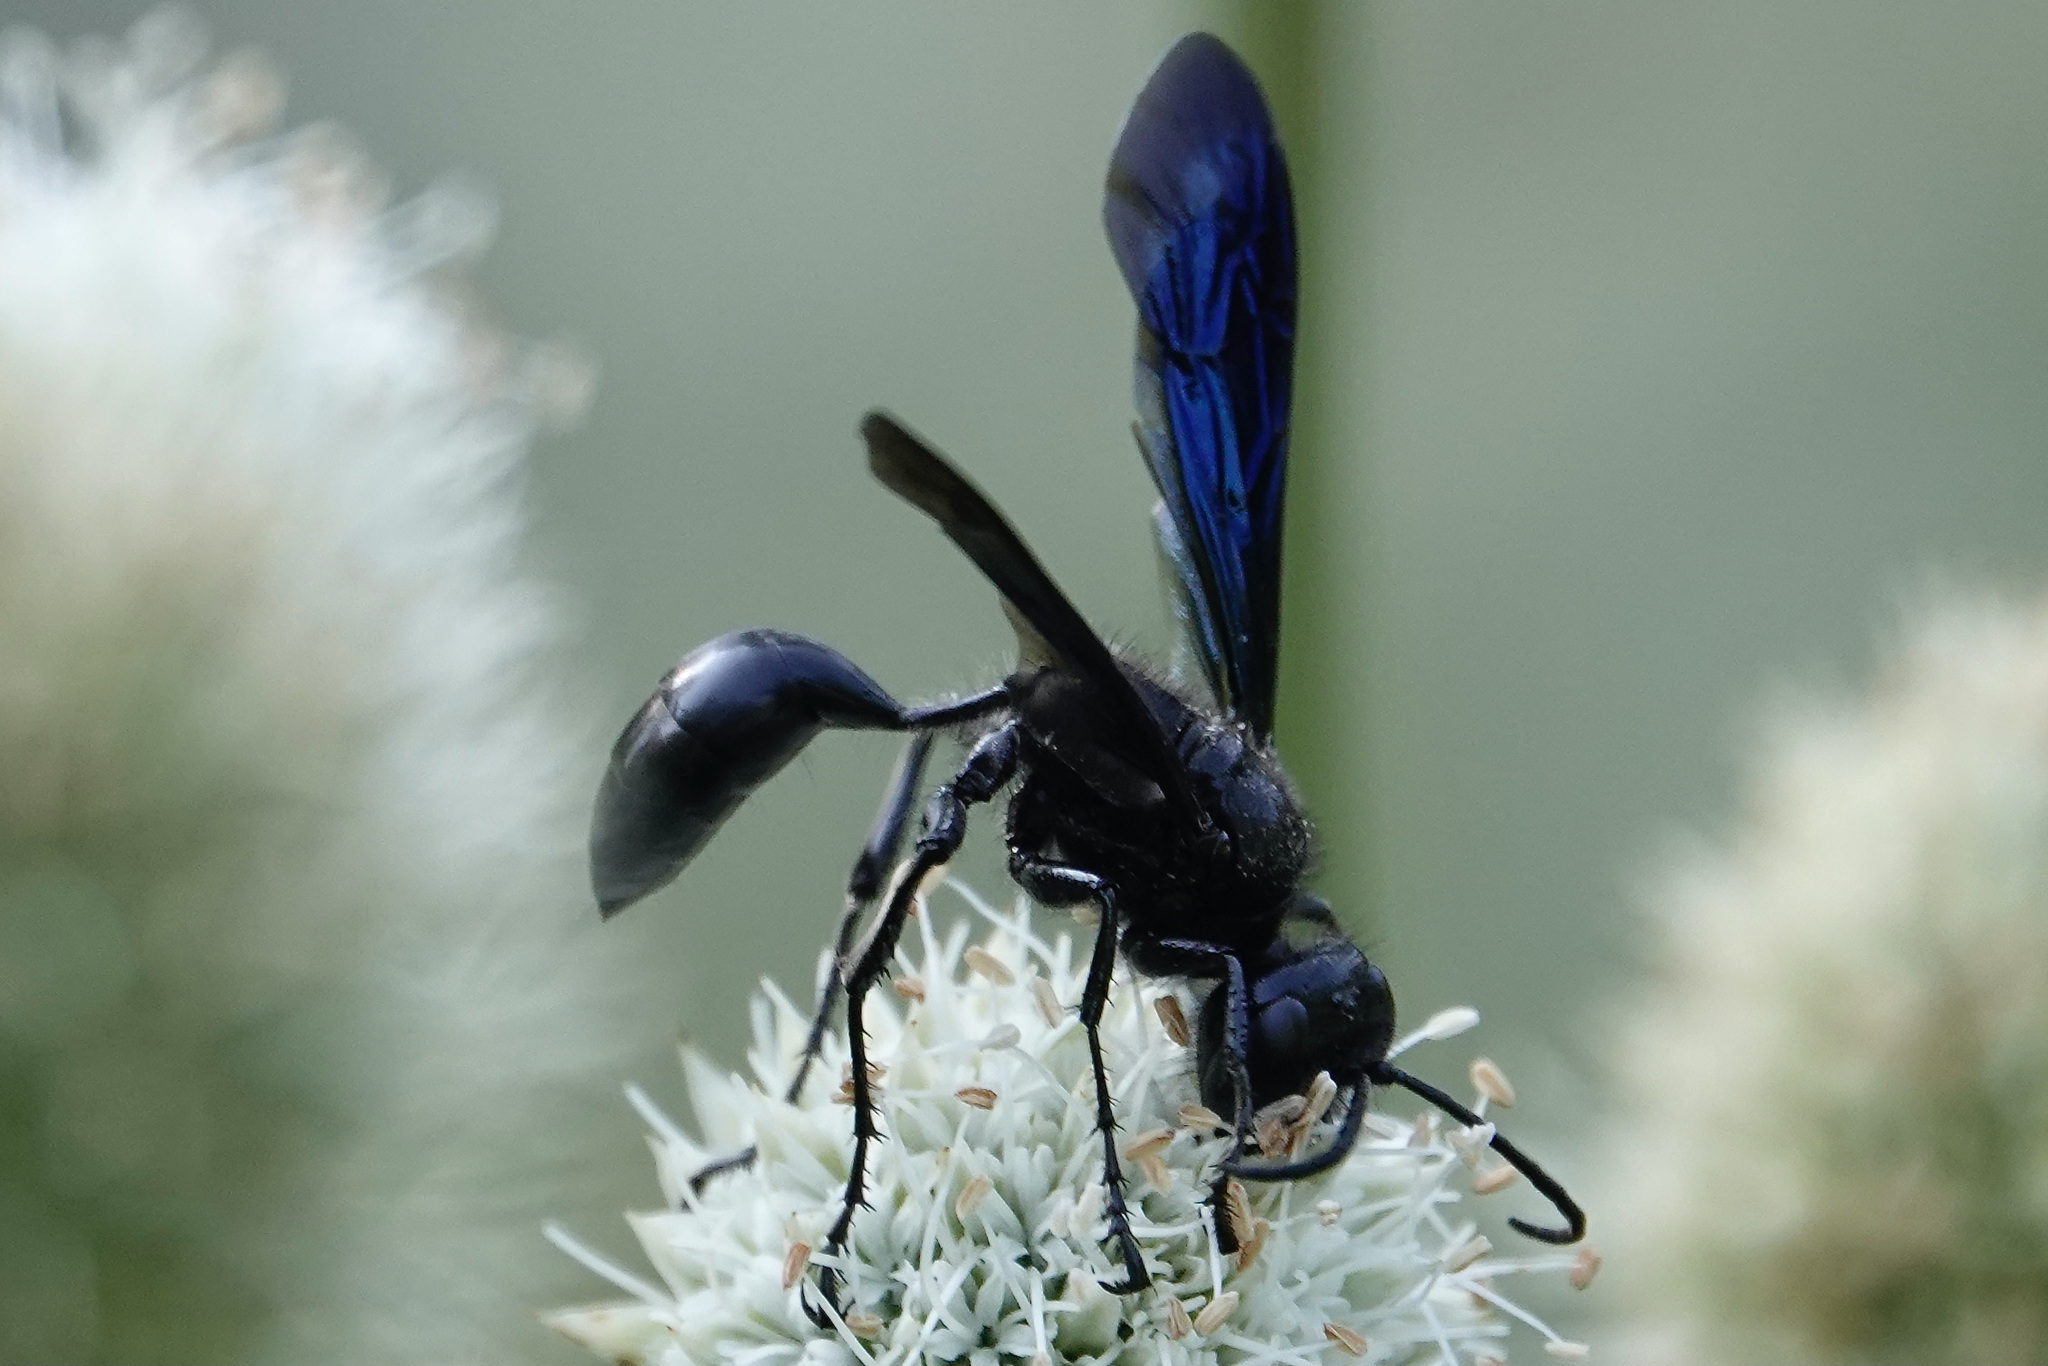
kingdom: Animalia
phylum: Arthropoda
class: Insecta
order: Hymenoptera
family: Sphecidae
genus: Isodontia
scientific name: Isodontia philadelphica
